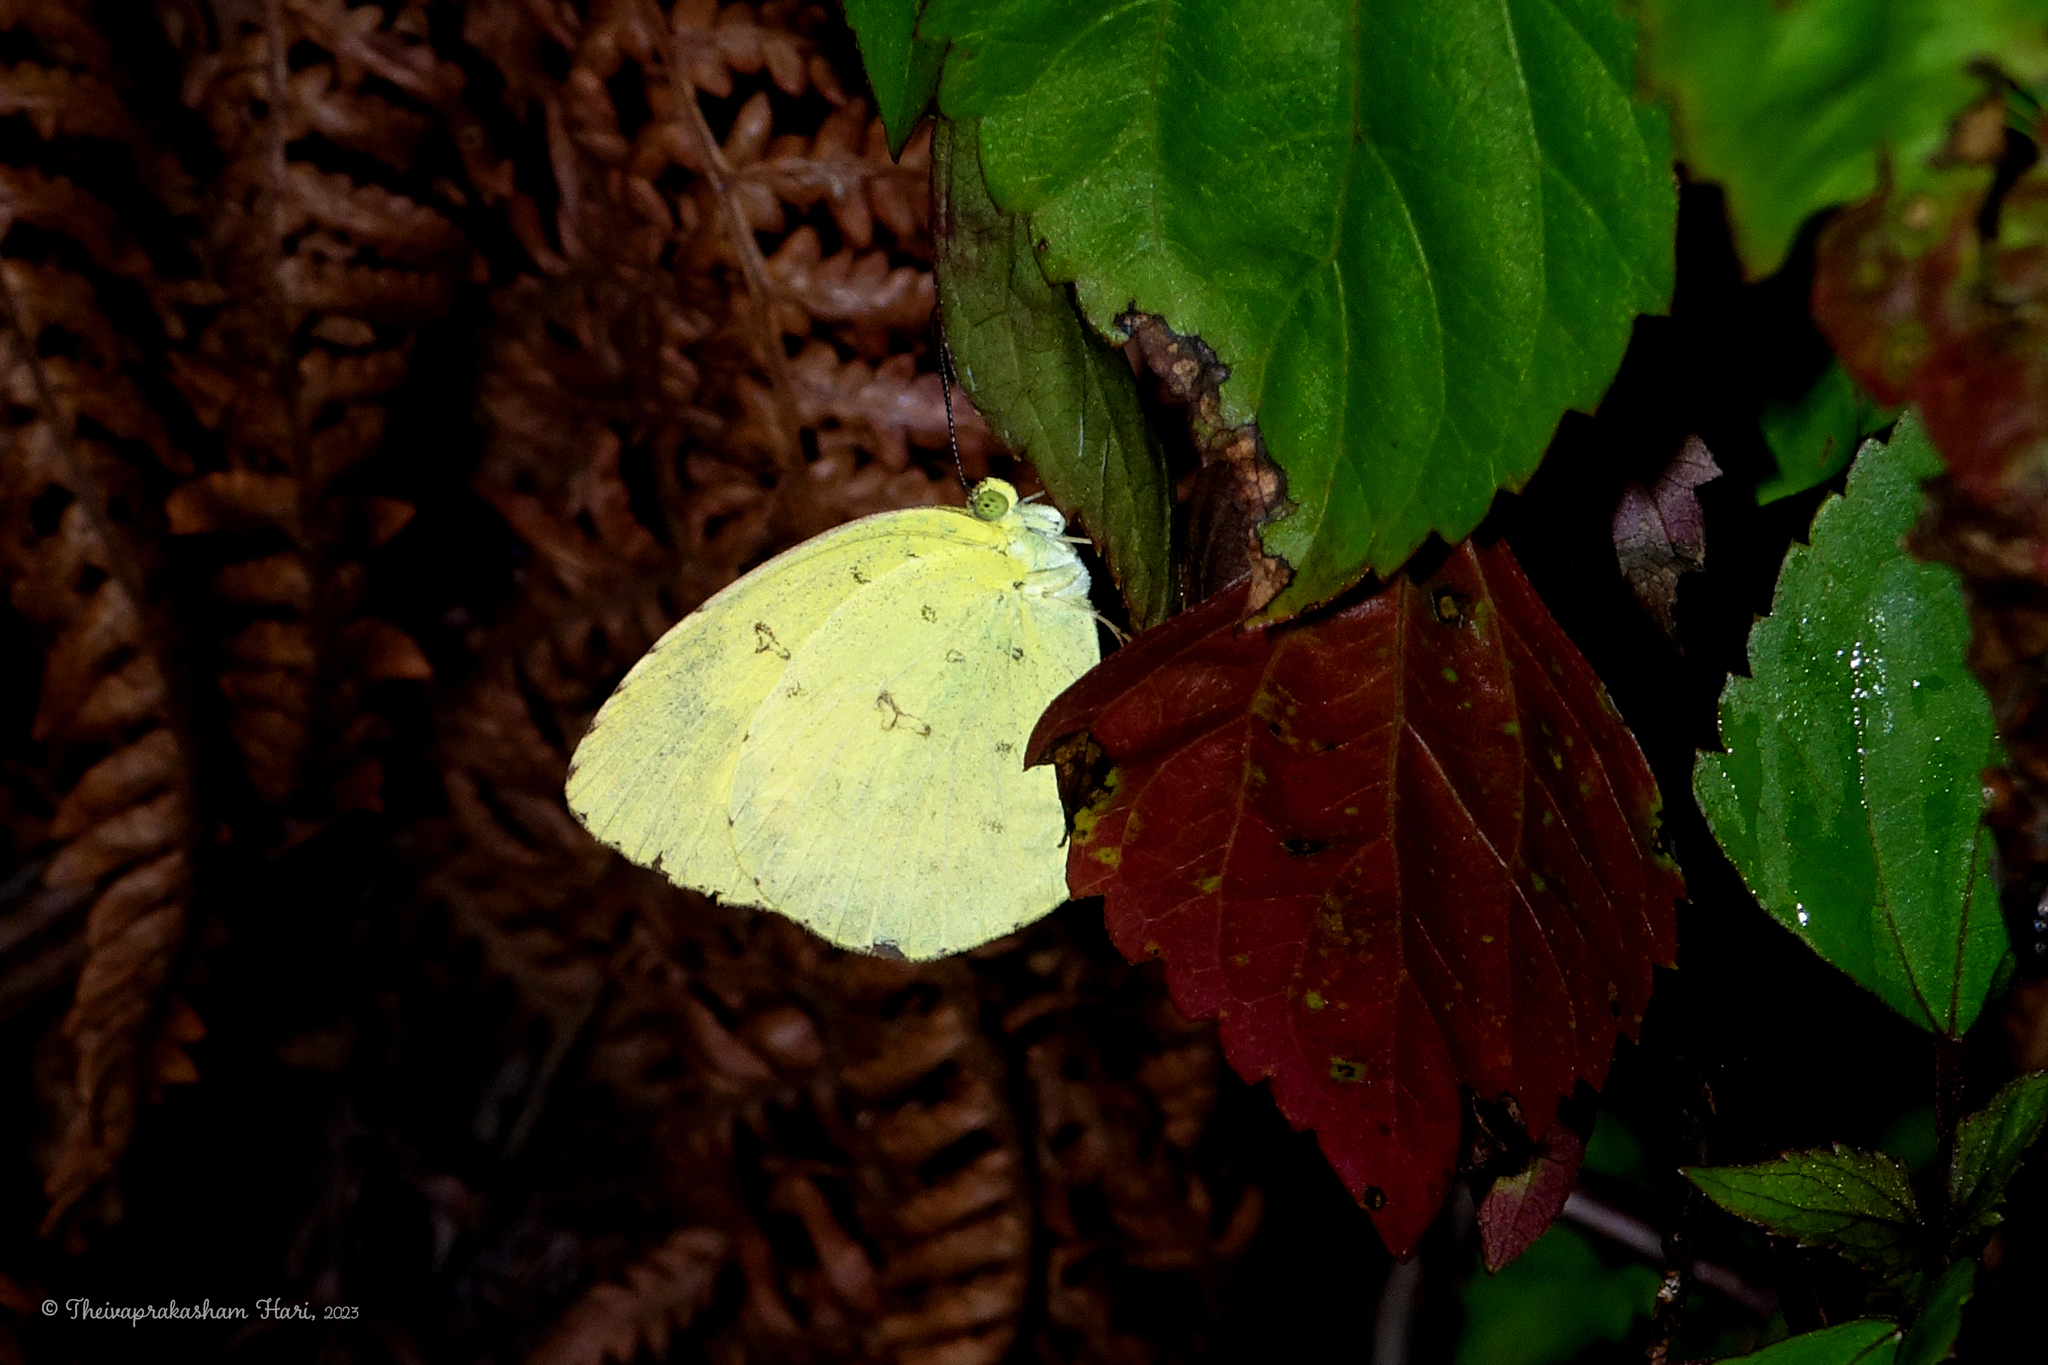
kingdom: Animalia
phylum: Arthropoda
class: Insecta
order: Lepidoptera
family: Pieridae
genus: Eurema
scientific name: Eurema hecabe
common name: Pale grass yellow
